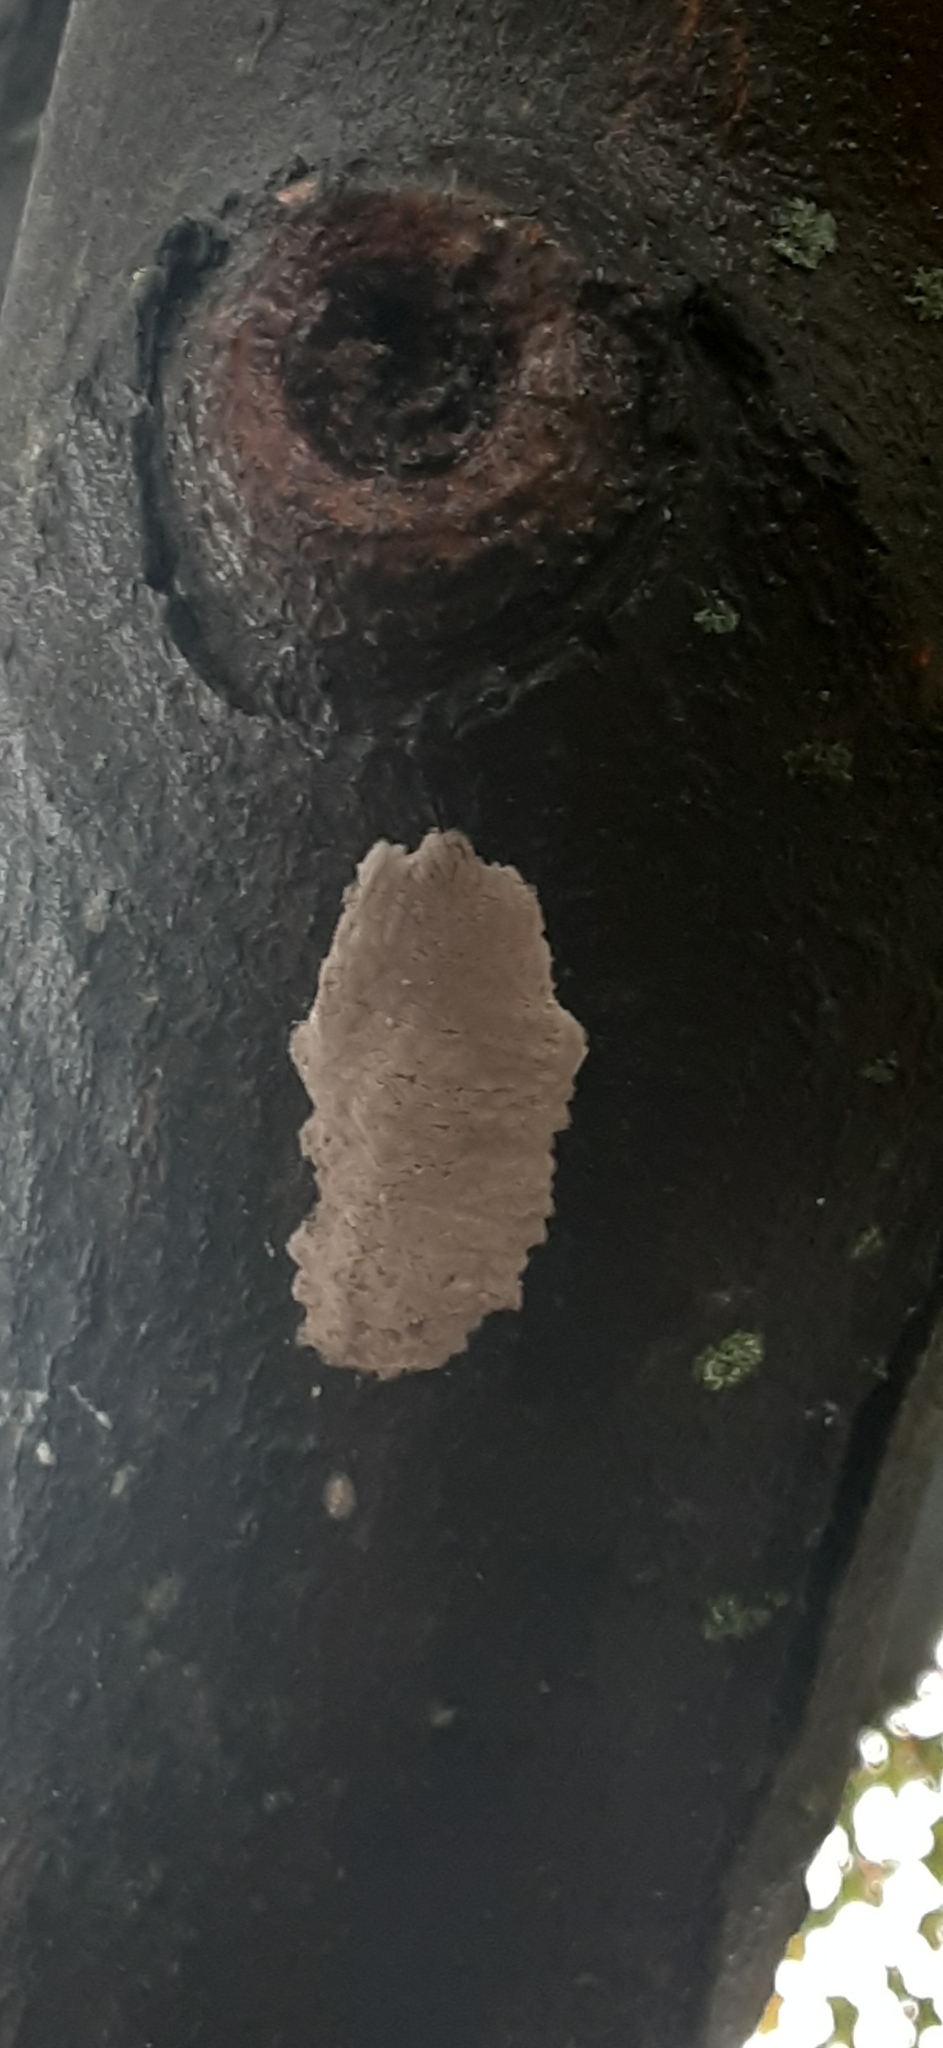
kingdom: Animalia
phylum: Arthropoda
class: Insecta
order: Hemiptera
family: Fulgoridae
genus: Lycorma
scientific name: Lycorma delicatula
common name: Spotted lanternfly
